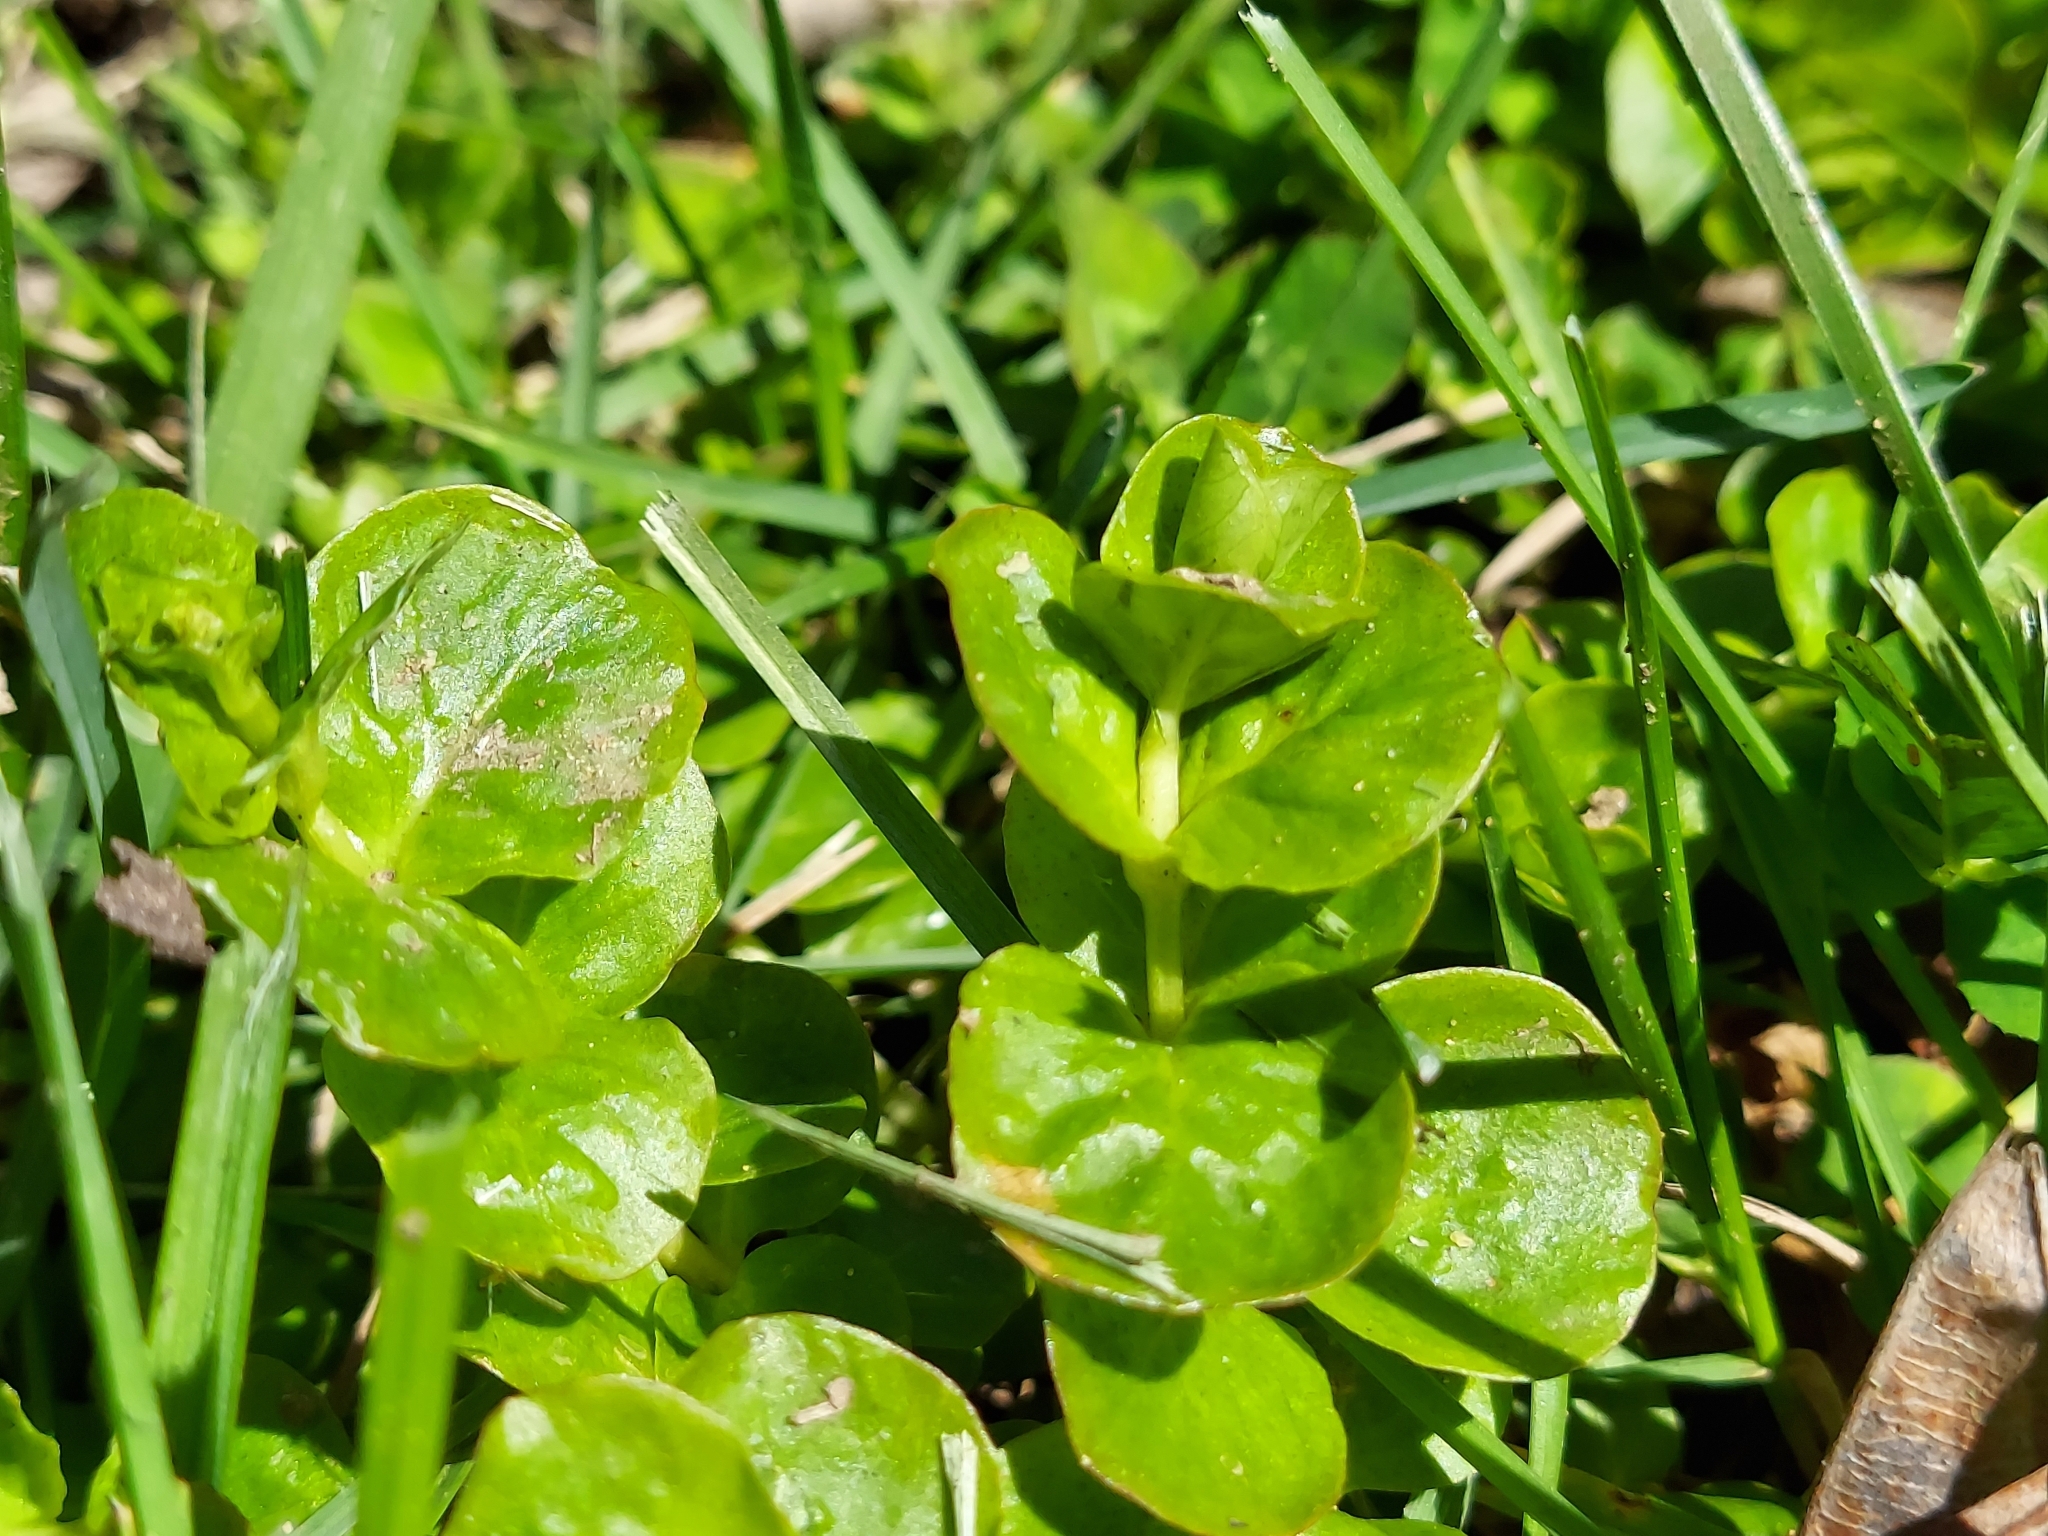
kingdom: Plantae
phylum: Tracheophyta
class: Magnoliopsida
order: Ericales
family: Primulaceae
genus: Lysimachia
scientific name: Lysimachia nummularia
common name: Moneywort
